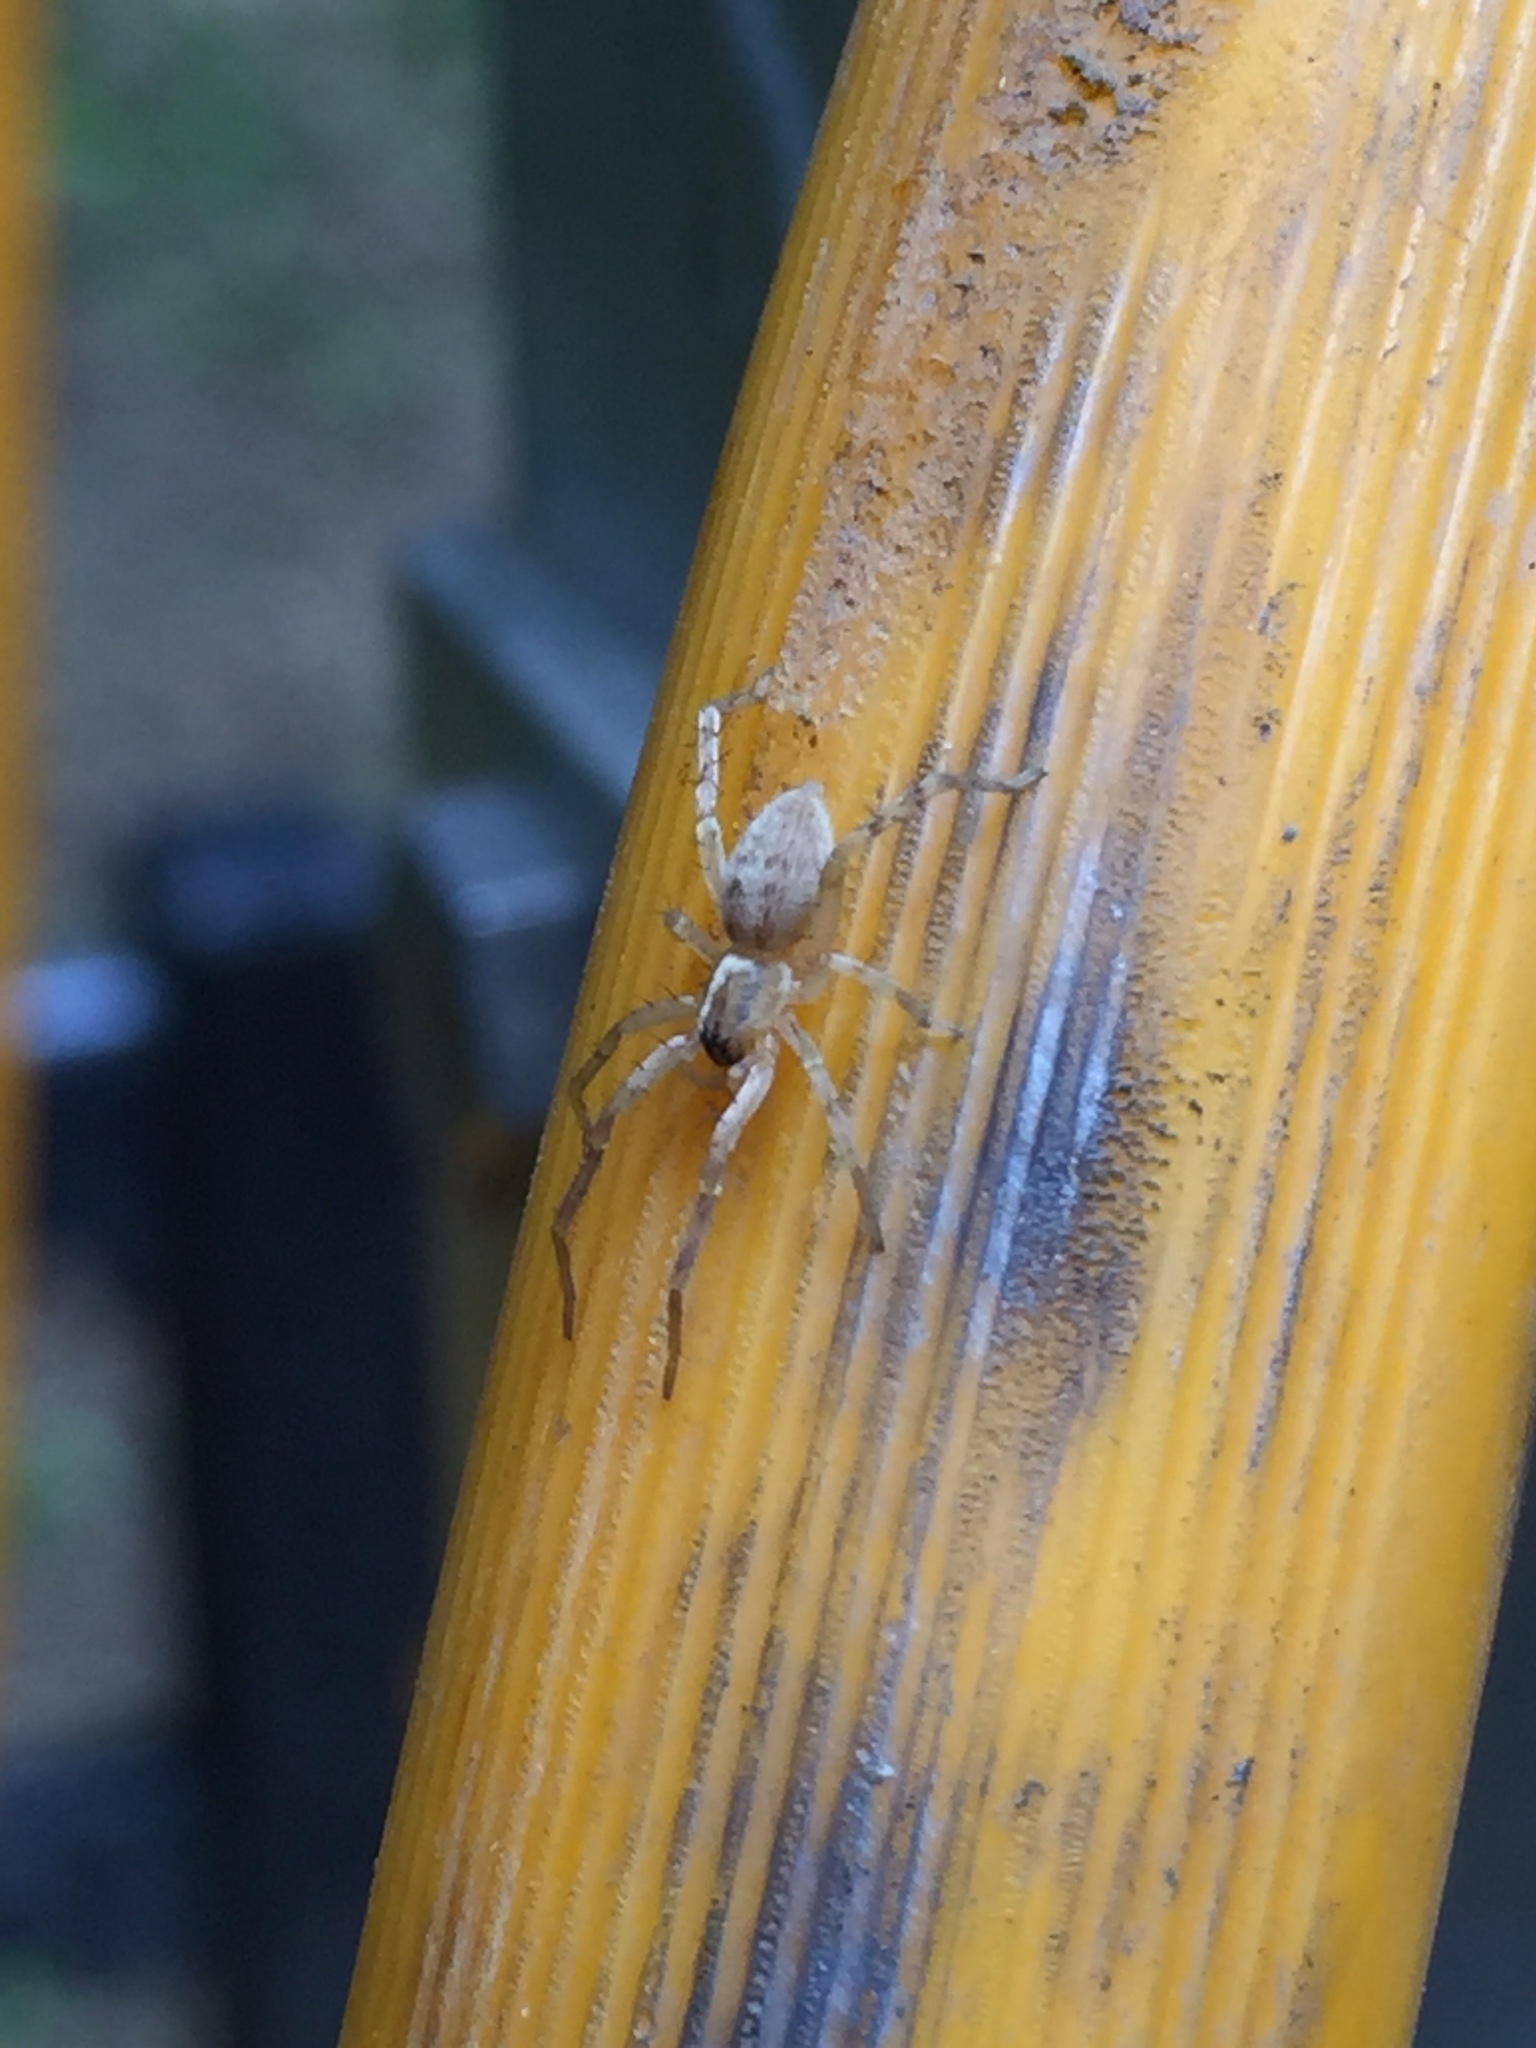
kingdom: Animalia
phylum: Arthropoda
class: Arachnida
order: Araneae
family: Anyphaenidae
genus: Hibana
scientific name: Hibana gracilis
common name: Garden ghost spider
